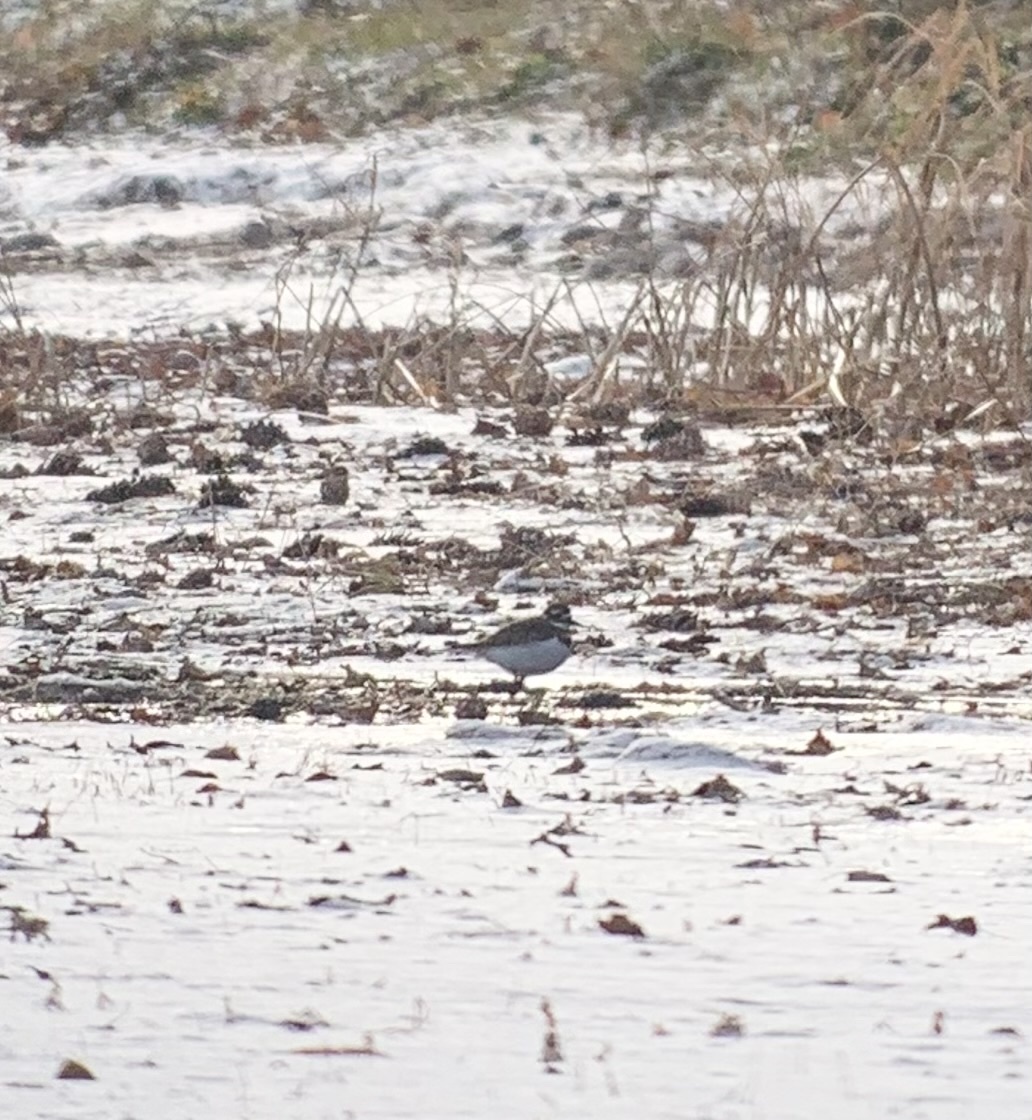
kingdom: Animalia
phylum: Chordata
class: Aves
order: Charadriiformes
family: Charadriidae
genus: Charadrius
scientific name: Charadrius vociferus
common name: Killdeer
